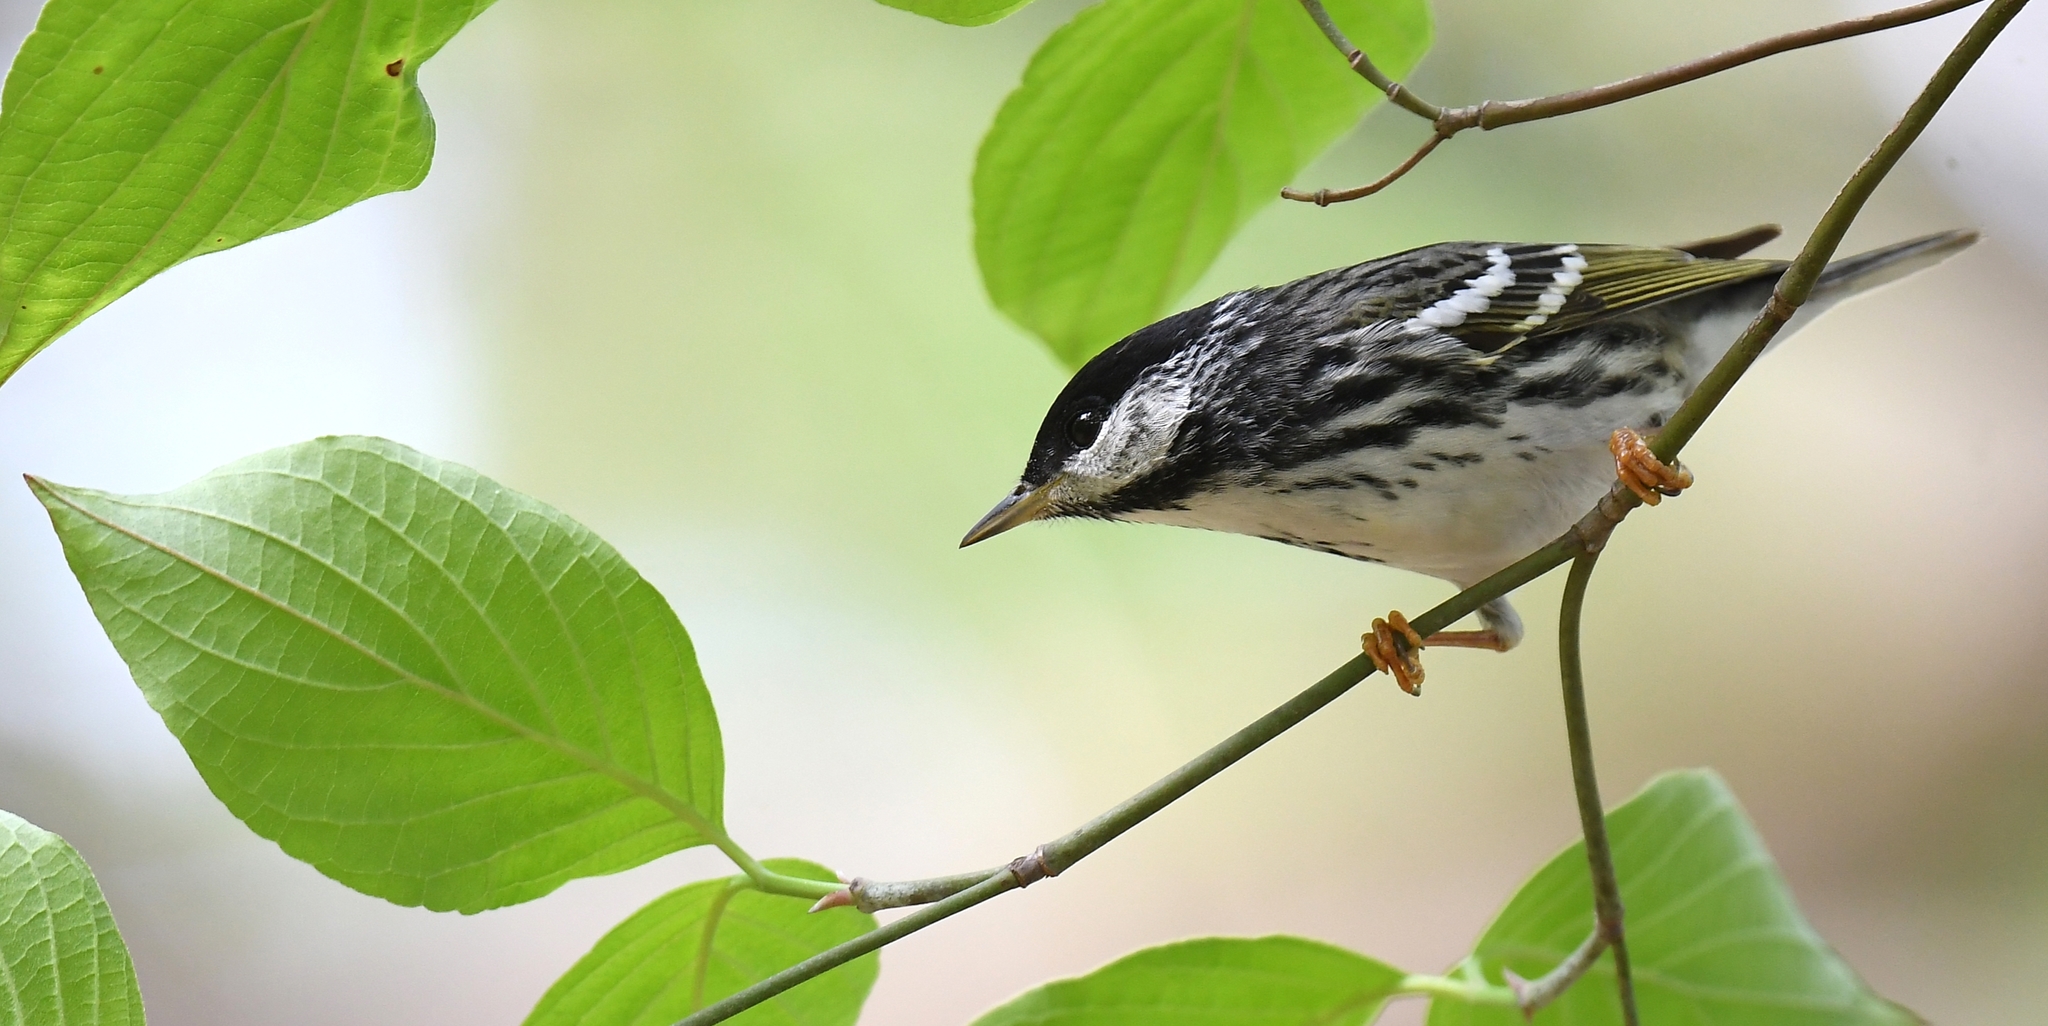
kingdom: Animalia
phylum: Chordata
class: Aves
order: Passeriformes
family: Parulidae
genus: Setophaga
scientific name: Setophaga striata
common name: Blackpoll warbler
